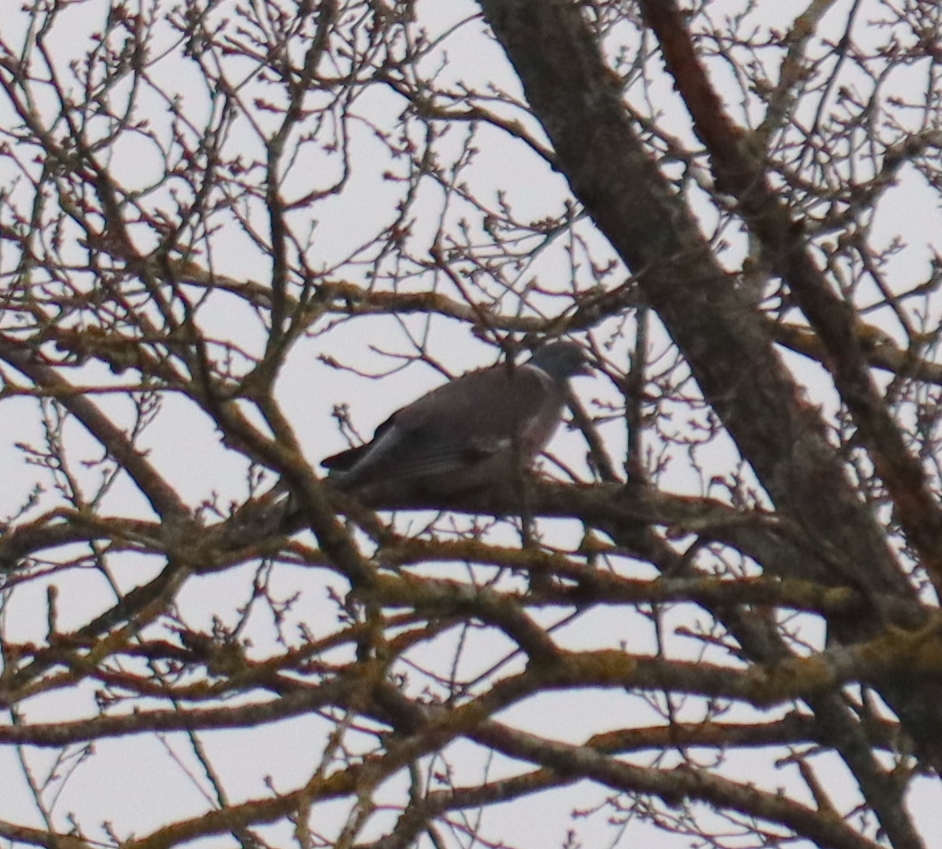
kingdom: Animalia
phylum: Chordata
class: Aves
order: Columbiformes
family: Columbidae
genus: Columba
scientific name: Columba palumbus
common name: Common wood pigeon
